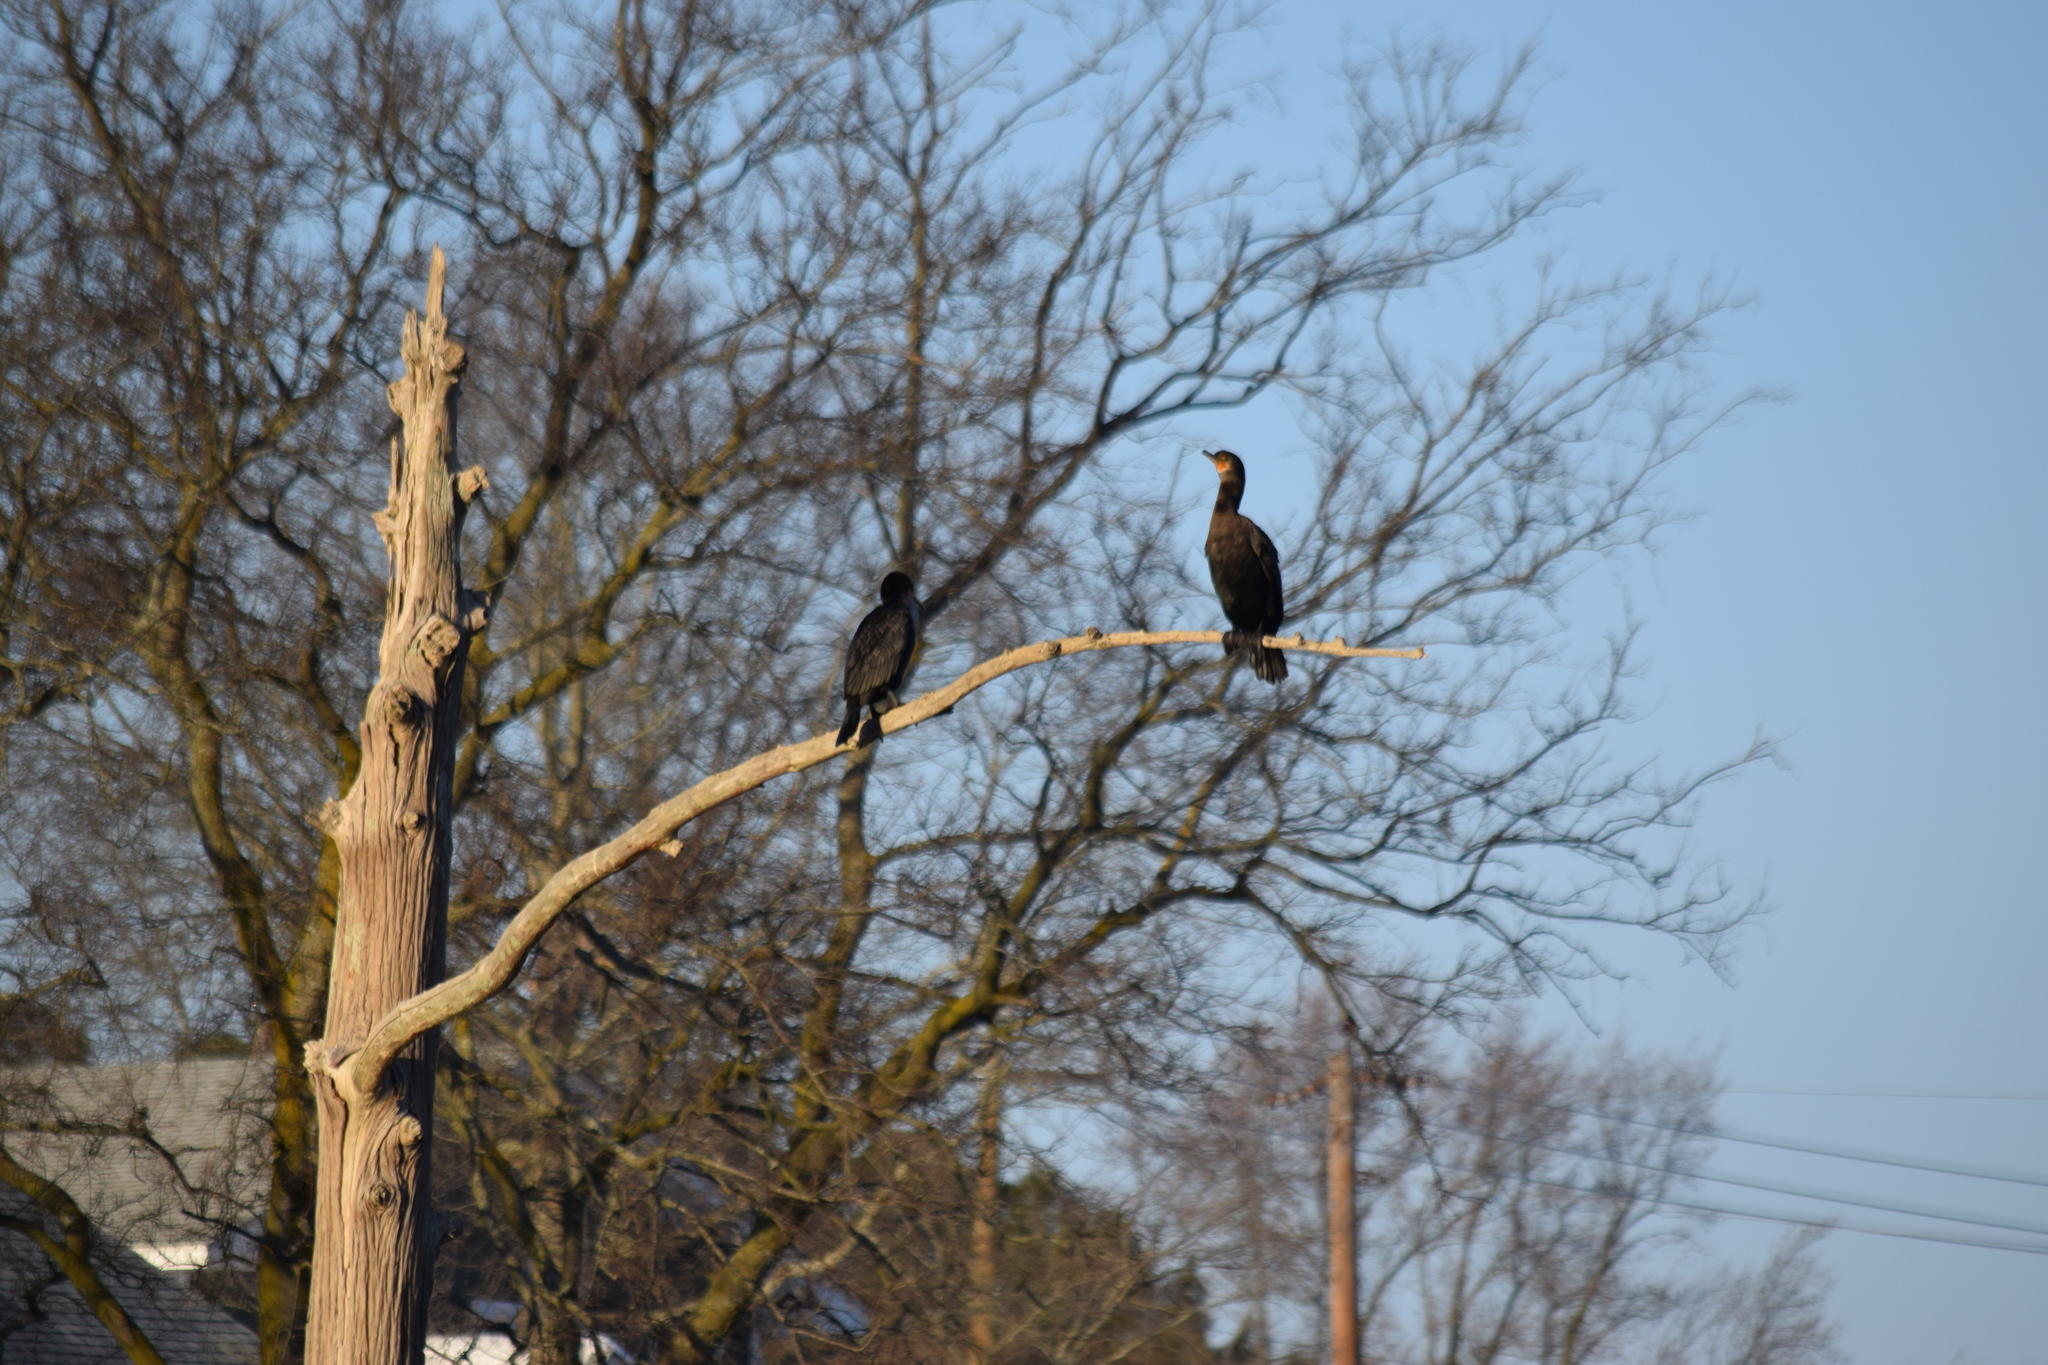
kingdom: Animalia
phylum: Chordata
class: Aves
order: Suliformes
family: Phalacrocoracidae
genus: Phalacrocorax
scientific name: Phalacrocorax auritus
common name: Double-crested cormorant
